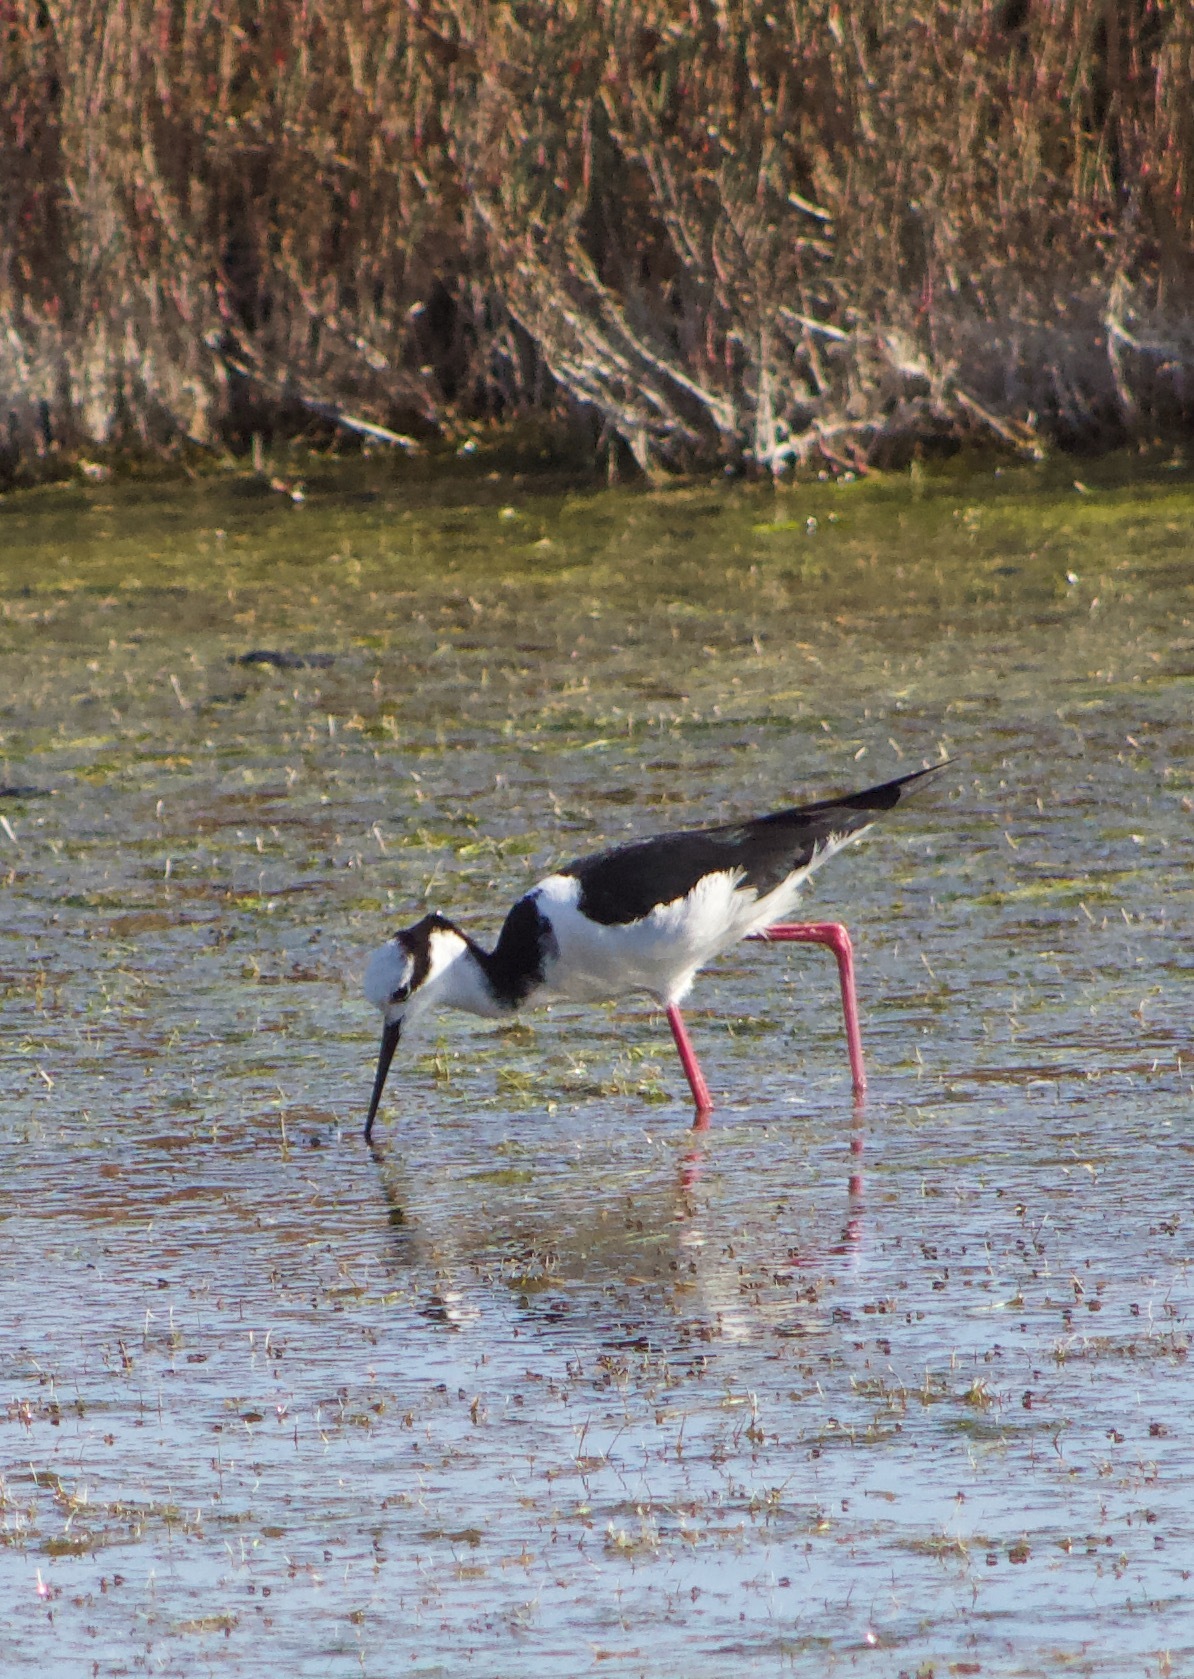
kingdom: Animalia
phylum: Chordata
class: Aves
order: Charadriiformes
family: Recurvirostridae
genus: Himantopus
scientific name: Himantopus mexicanus
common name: Black-necked stilt
